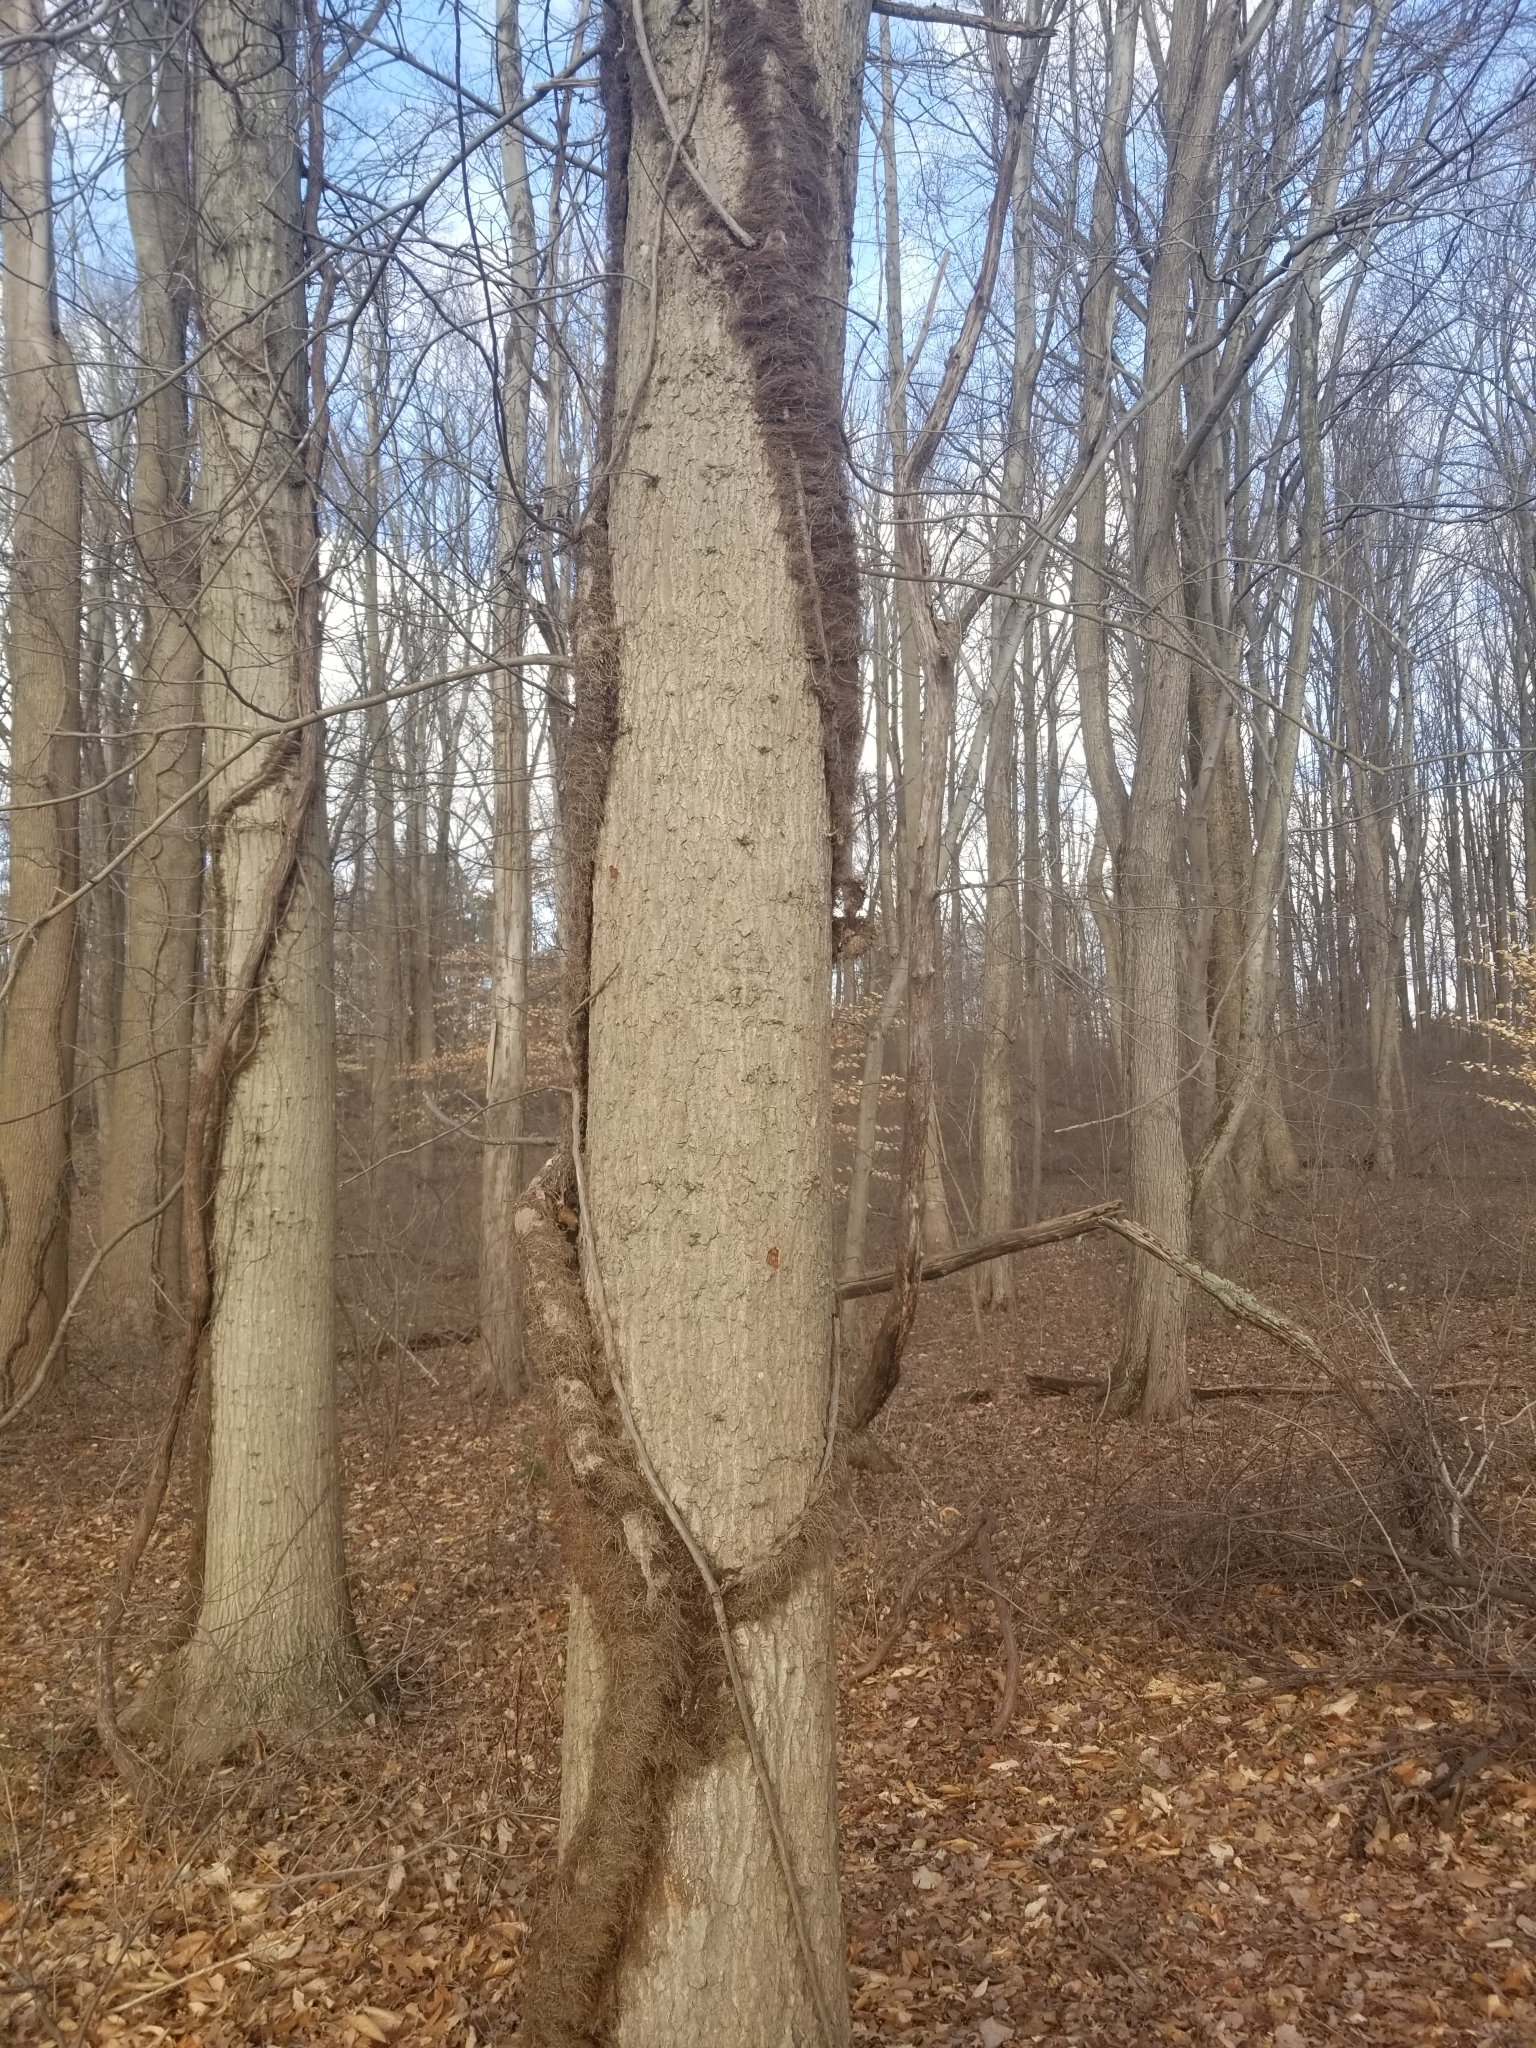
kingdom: Plantae
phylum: Tracheophyta
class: Magnoliopsida
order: Sapindales
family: Anacardiaceae
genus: Toxicodendron
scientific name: Toxicodendron radicans
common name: Poison ivy
